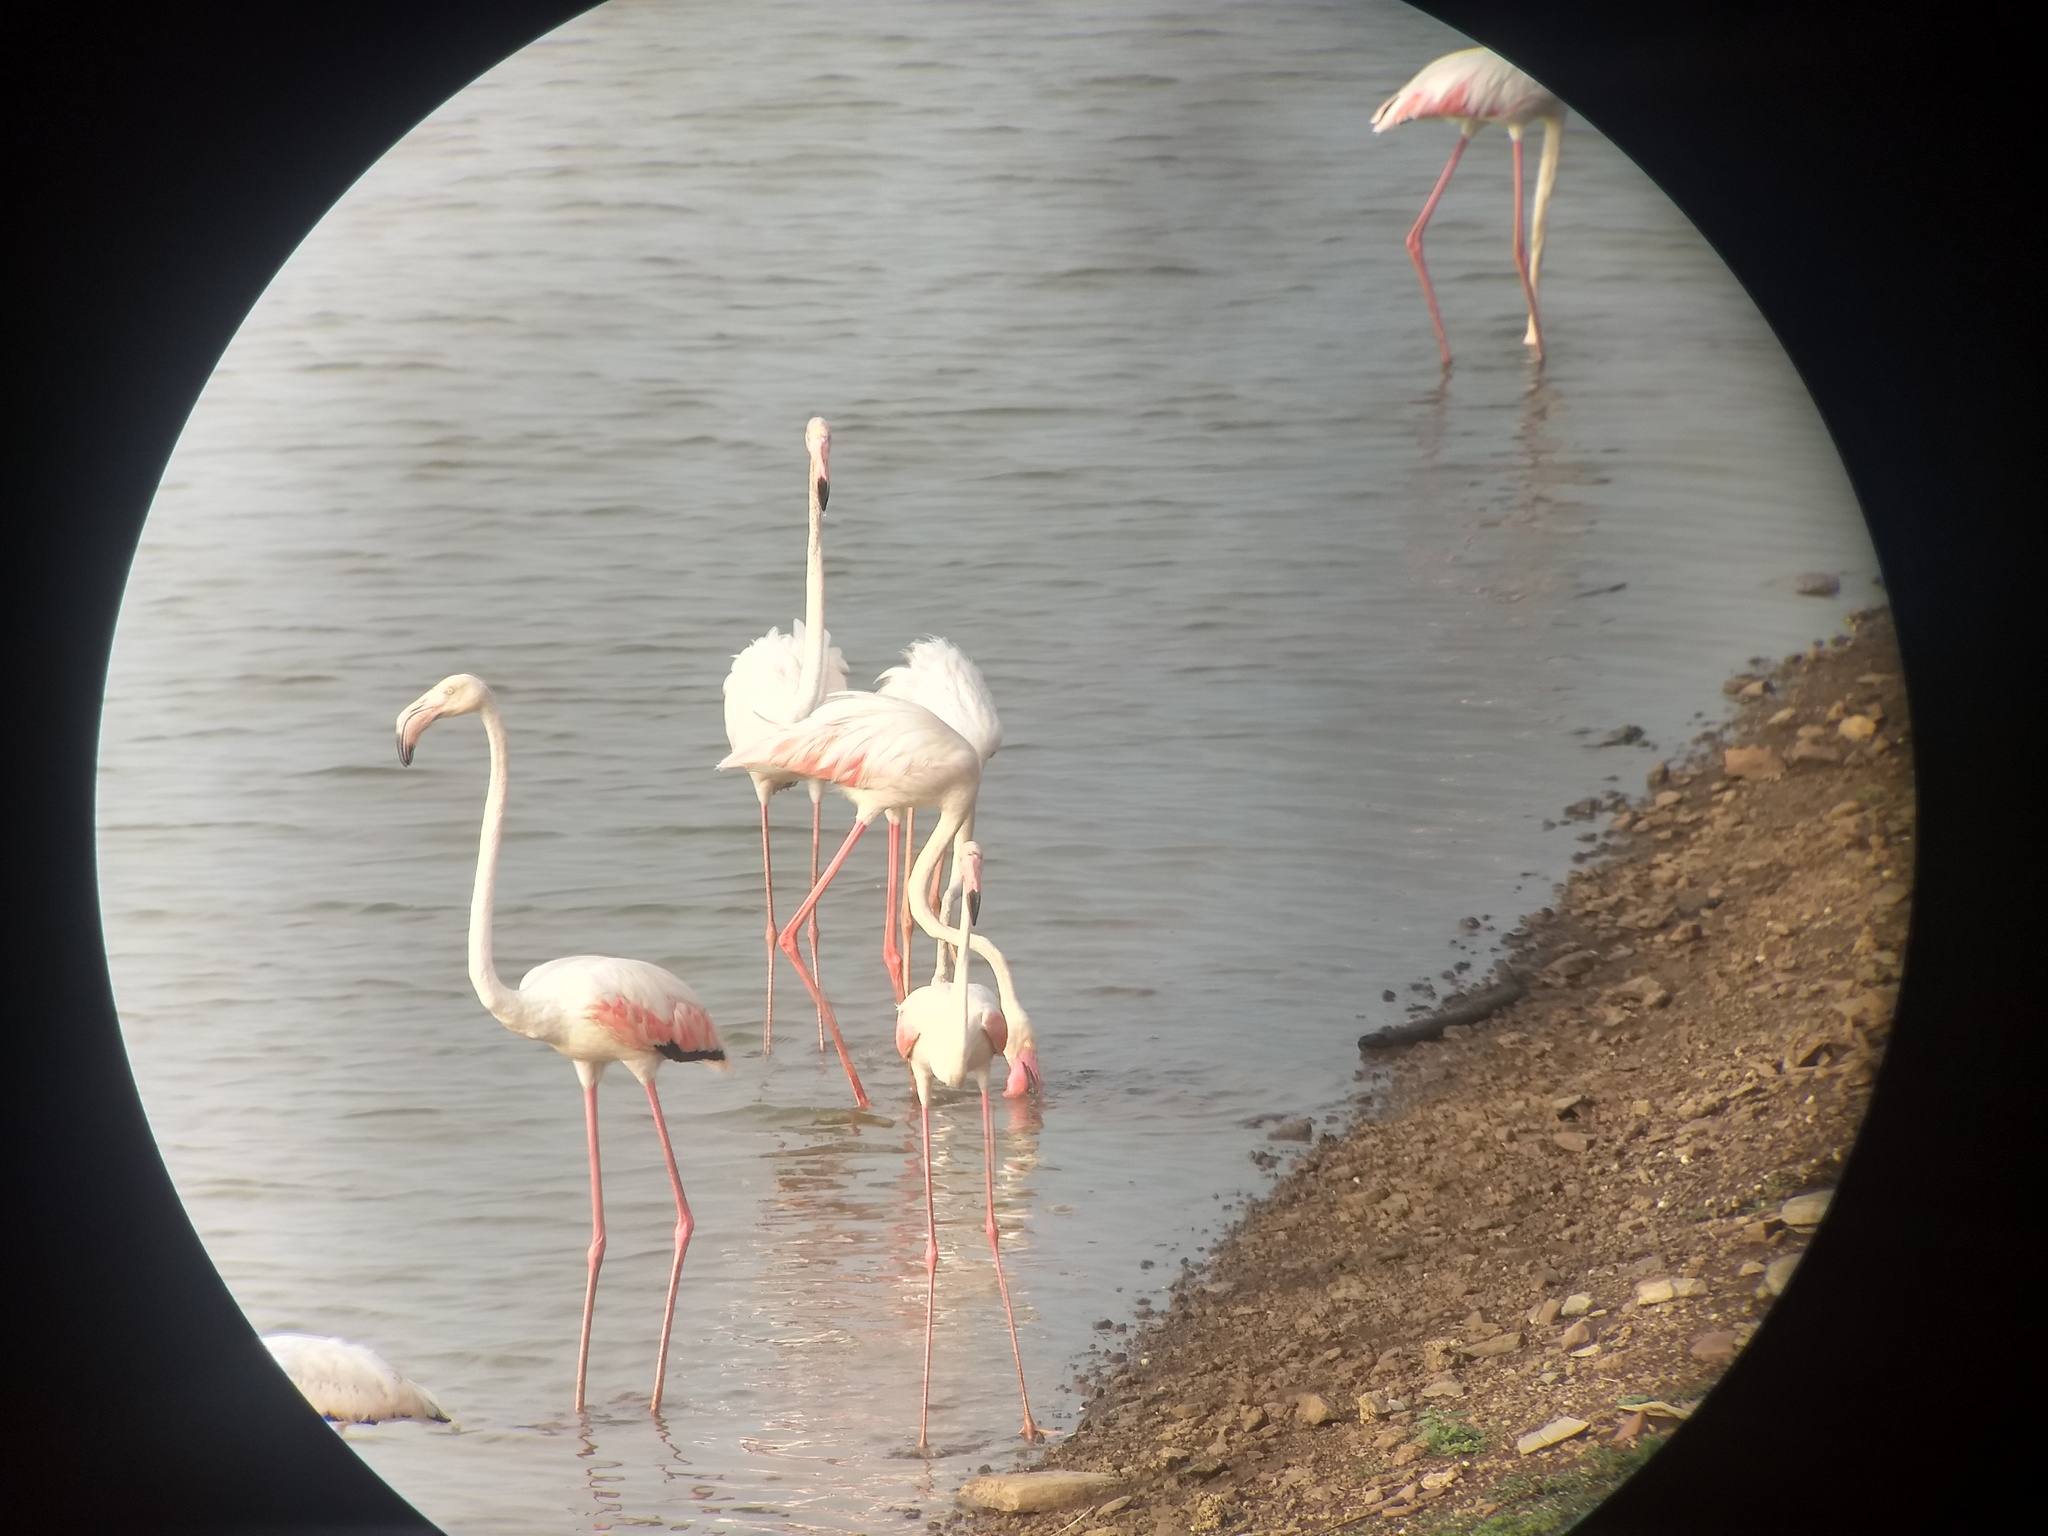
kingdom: Animalia
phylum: Chordata
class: Aves
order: Phoenicopteriformes
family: Phoenicopteridae
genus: Phoenicopterus
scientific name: Phoenicopterus roseus
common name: Greater flamingo
